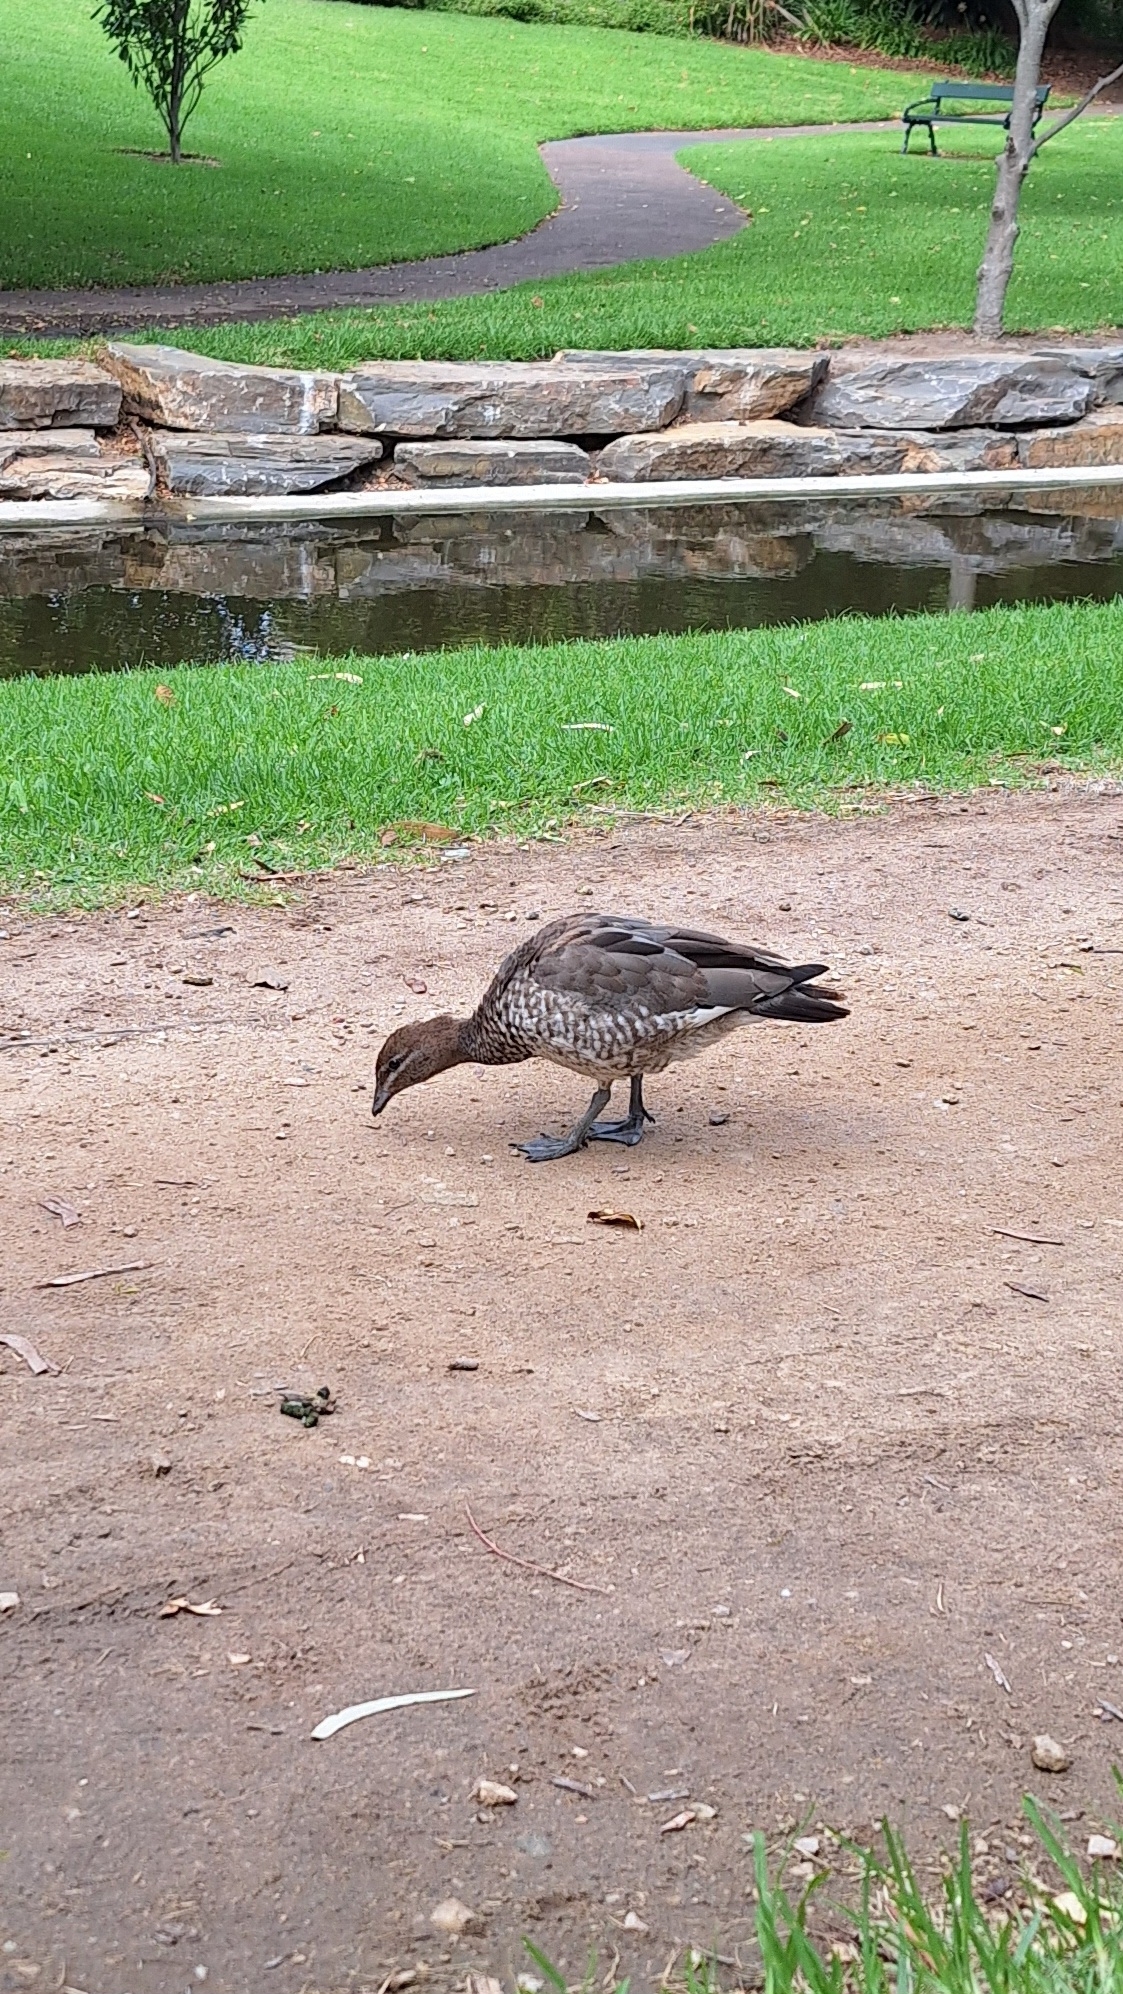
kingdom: Animalia
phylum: Chordata
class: Aves
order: Anseriformes
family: Anatidae
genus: Chenonetta
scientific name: Chenonetta jubata
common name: Maned duck
